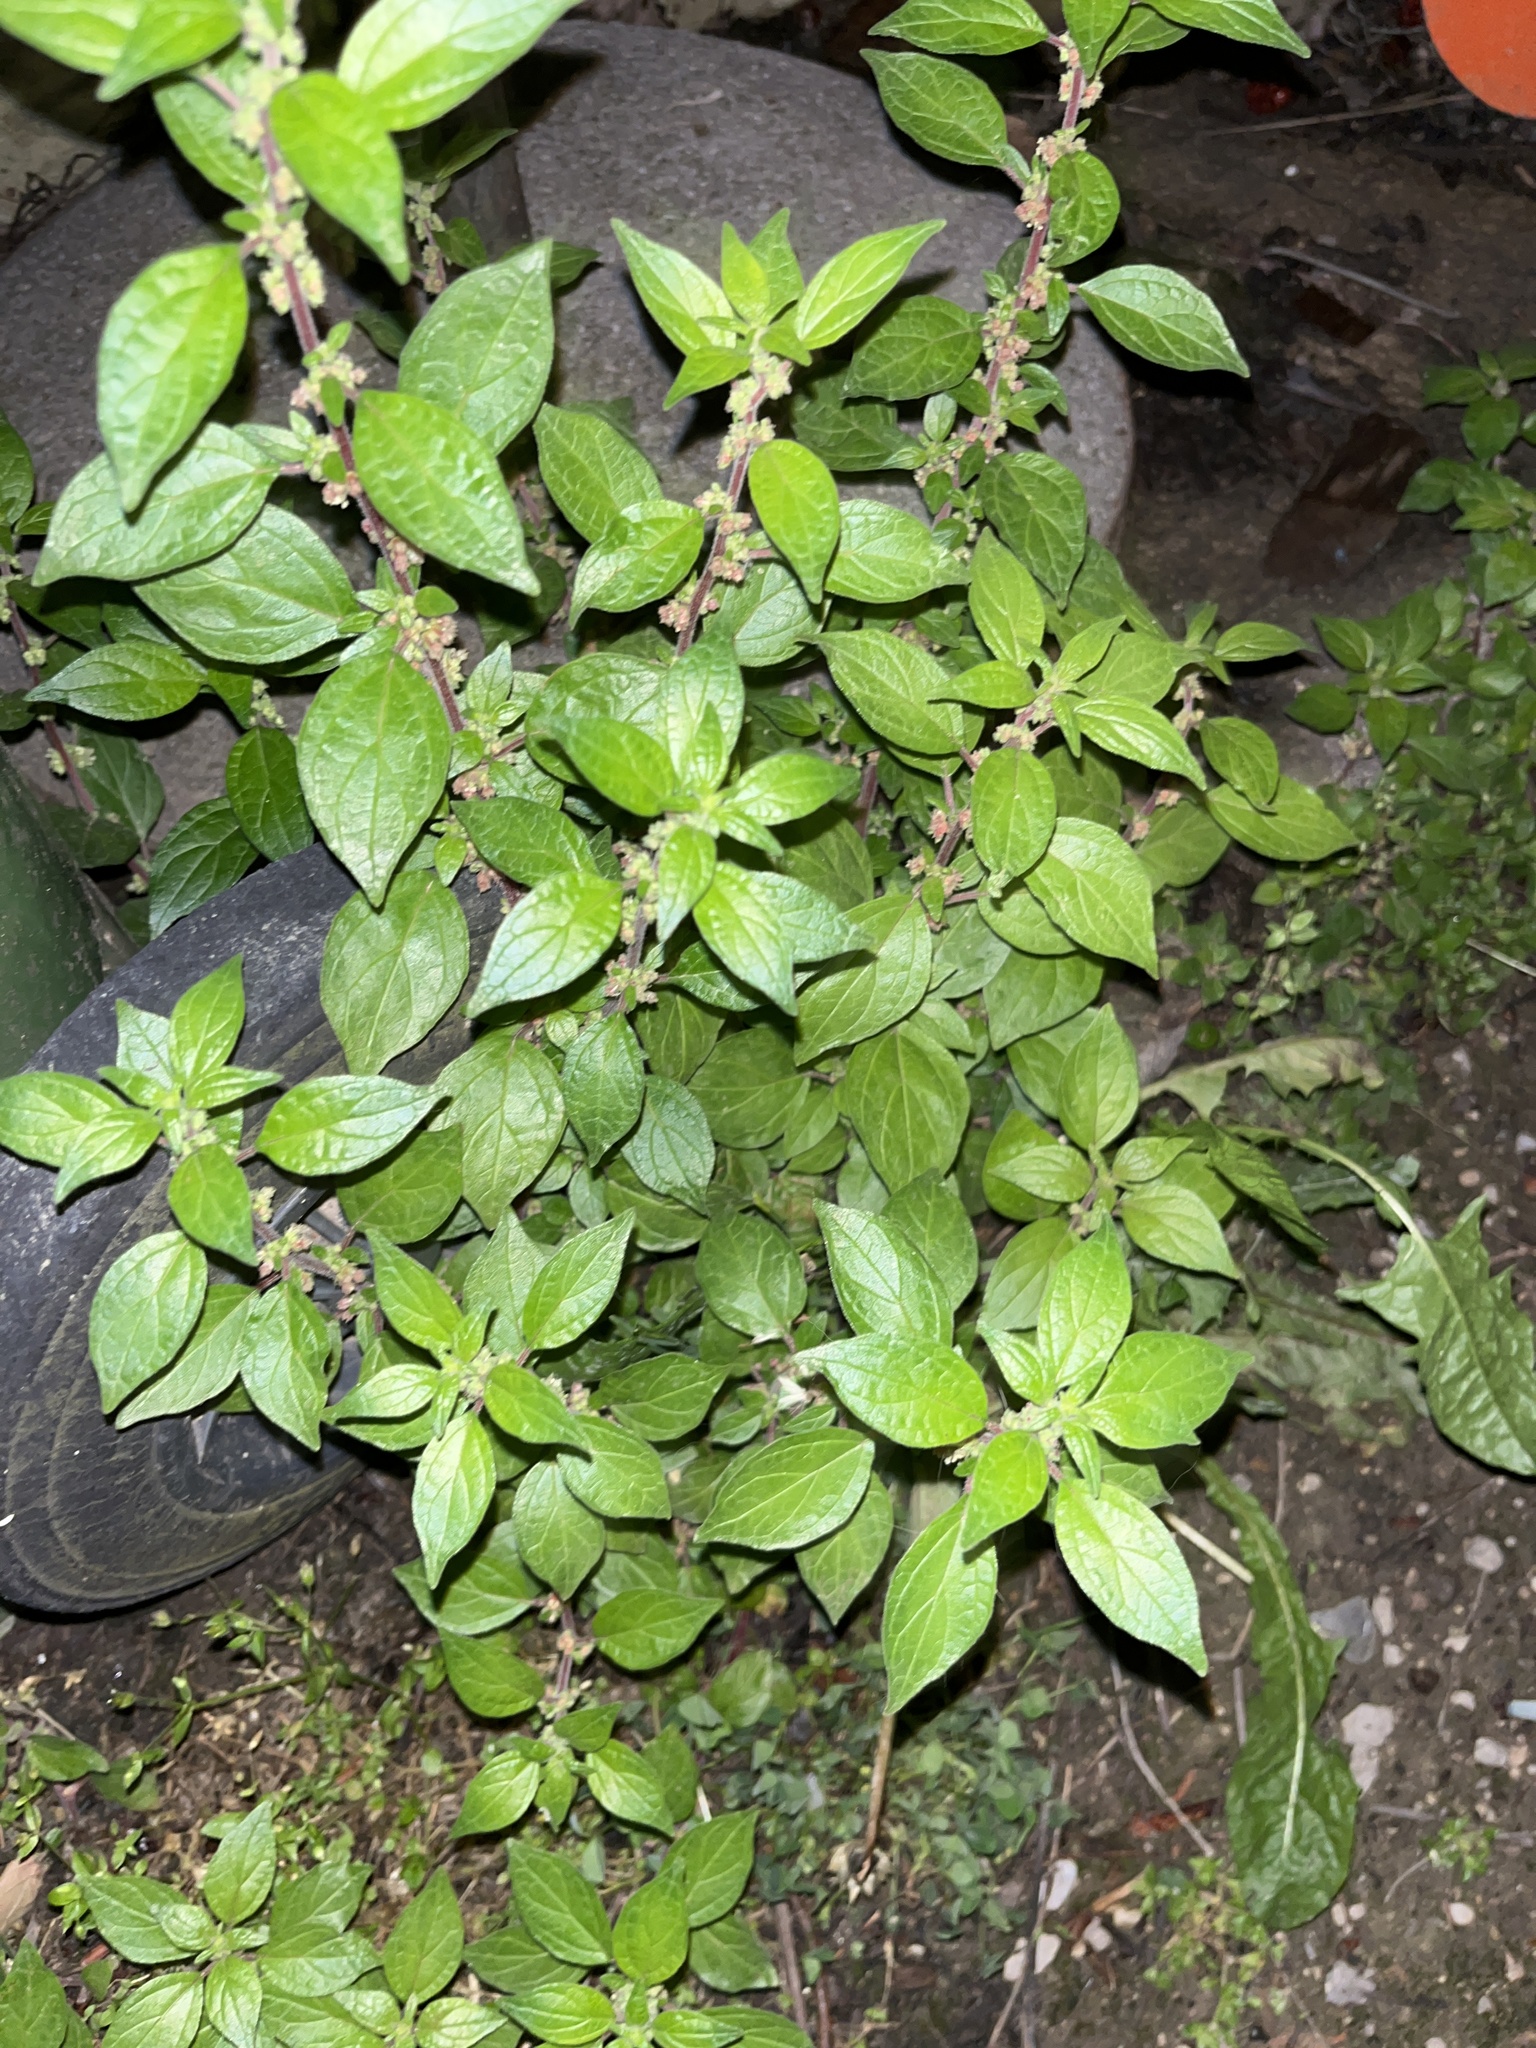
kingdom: Plantae
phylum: Tracheophyta
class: Magnoliopsida
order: Rosales
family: Urticaceae
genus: Parietaria
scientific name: Parietaria judaica
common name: Pellitory-of-the-wall
